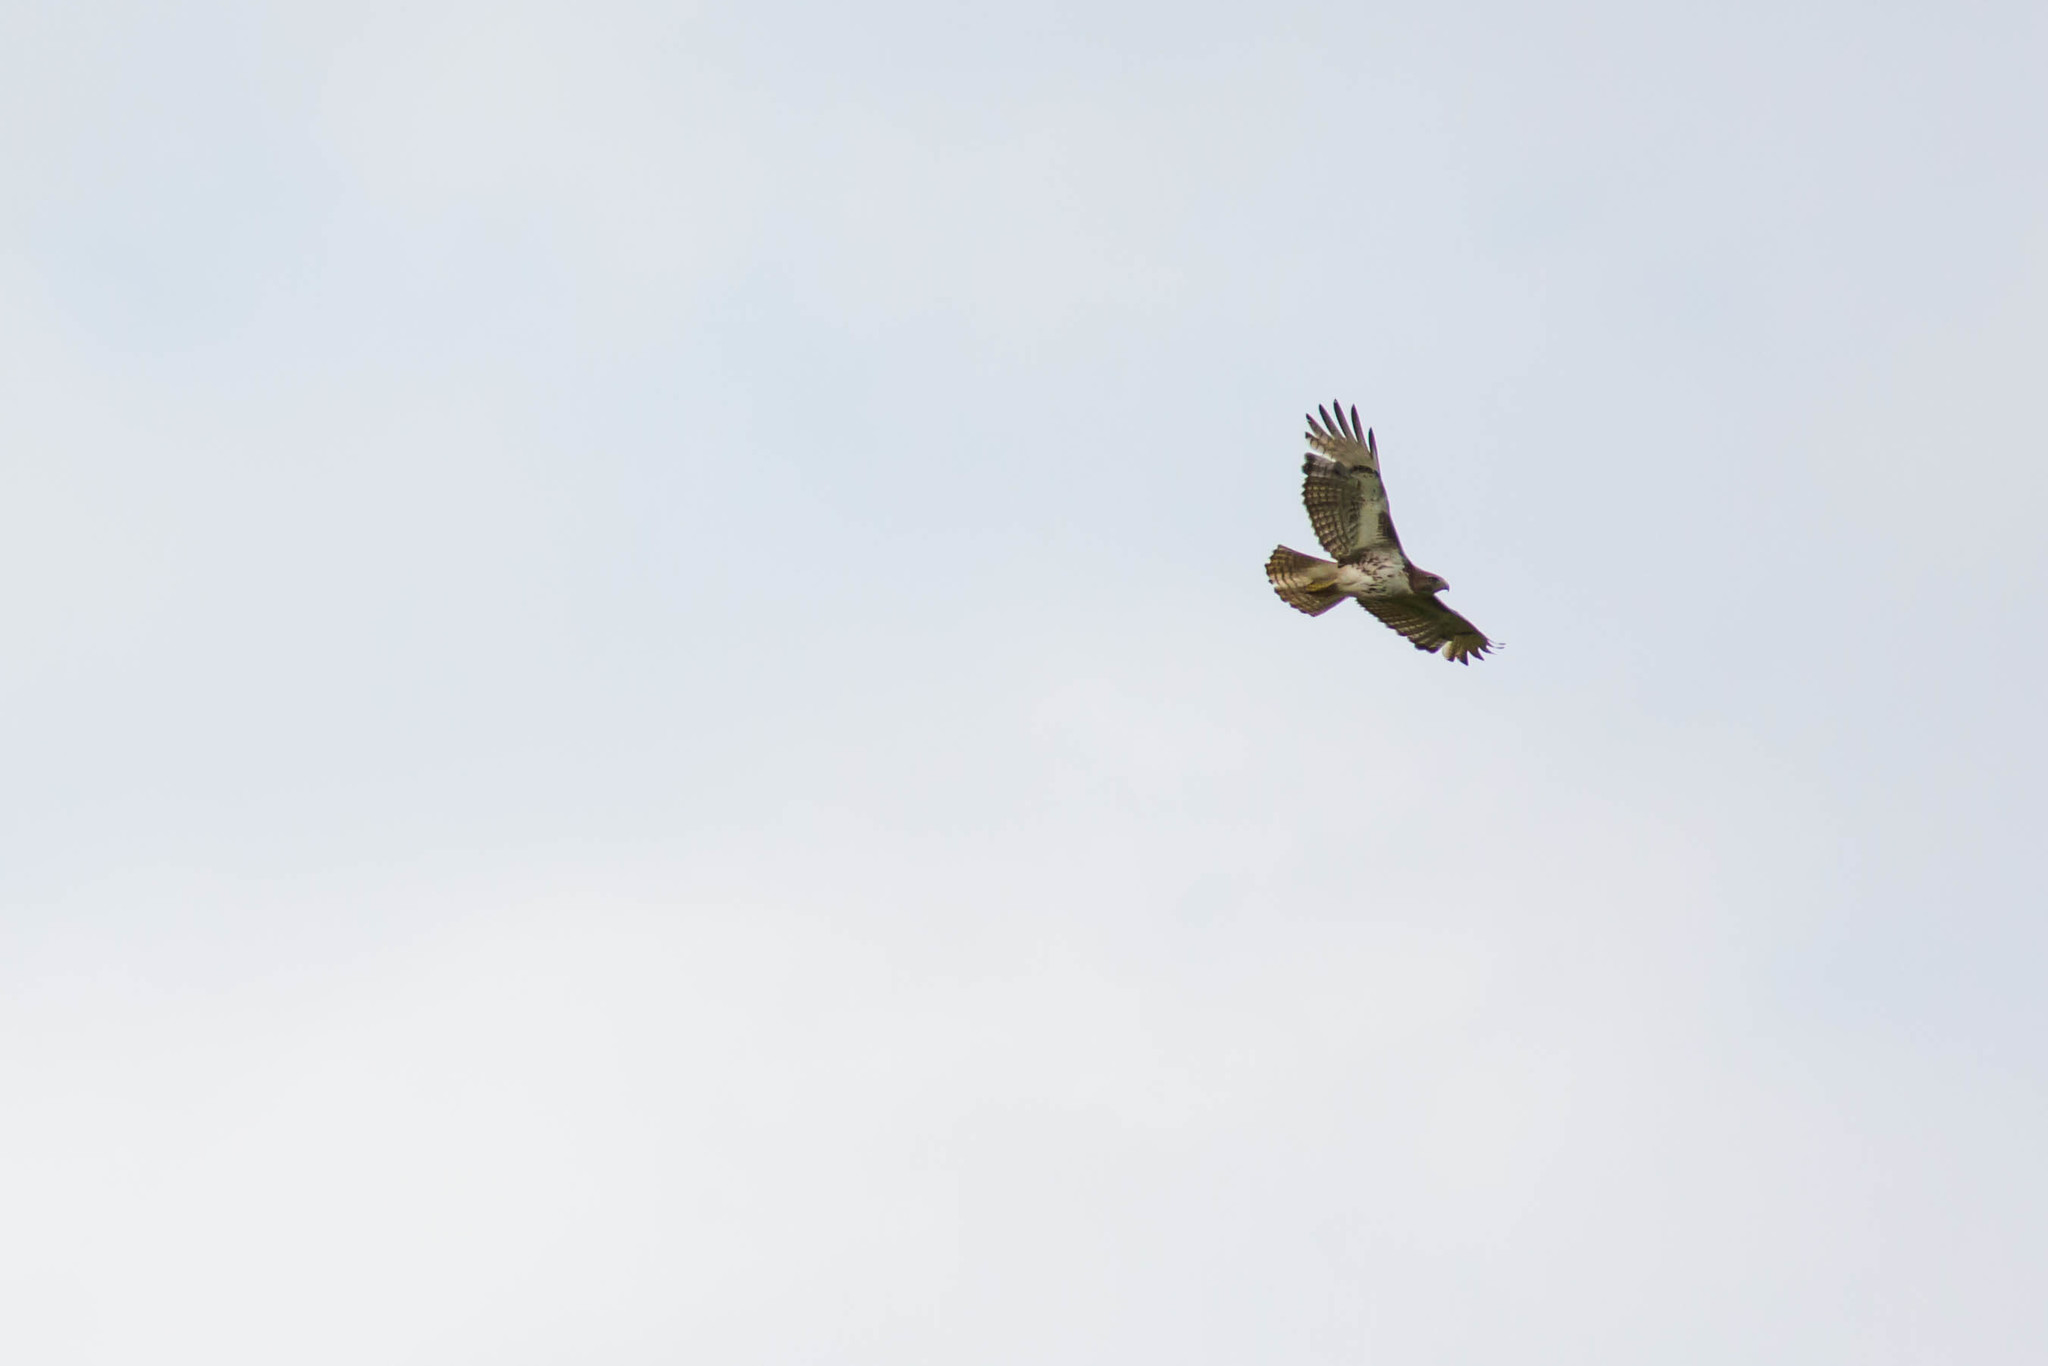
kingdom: Animalia
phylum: Chordata
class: Aves
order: Accipitriformes
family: Accipitridae
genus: Buteo
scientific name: Buteo jamaicensis
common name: Red-tailed hawk
